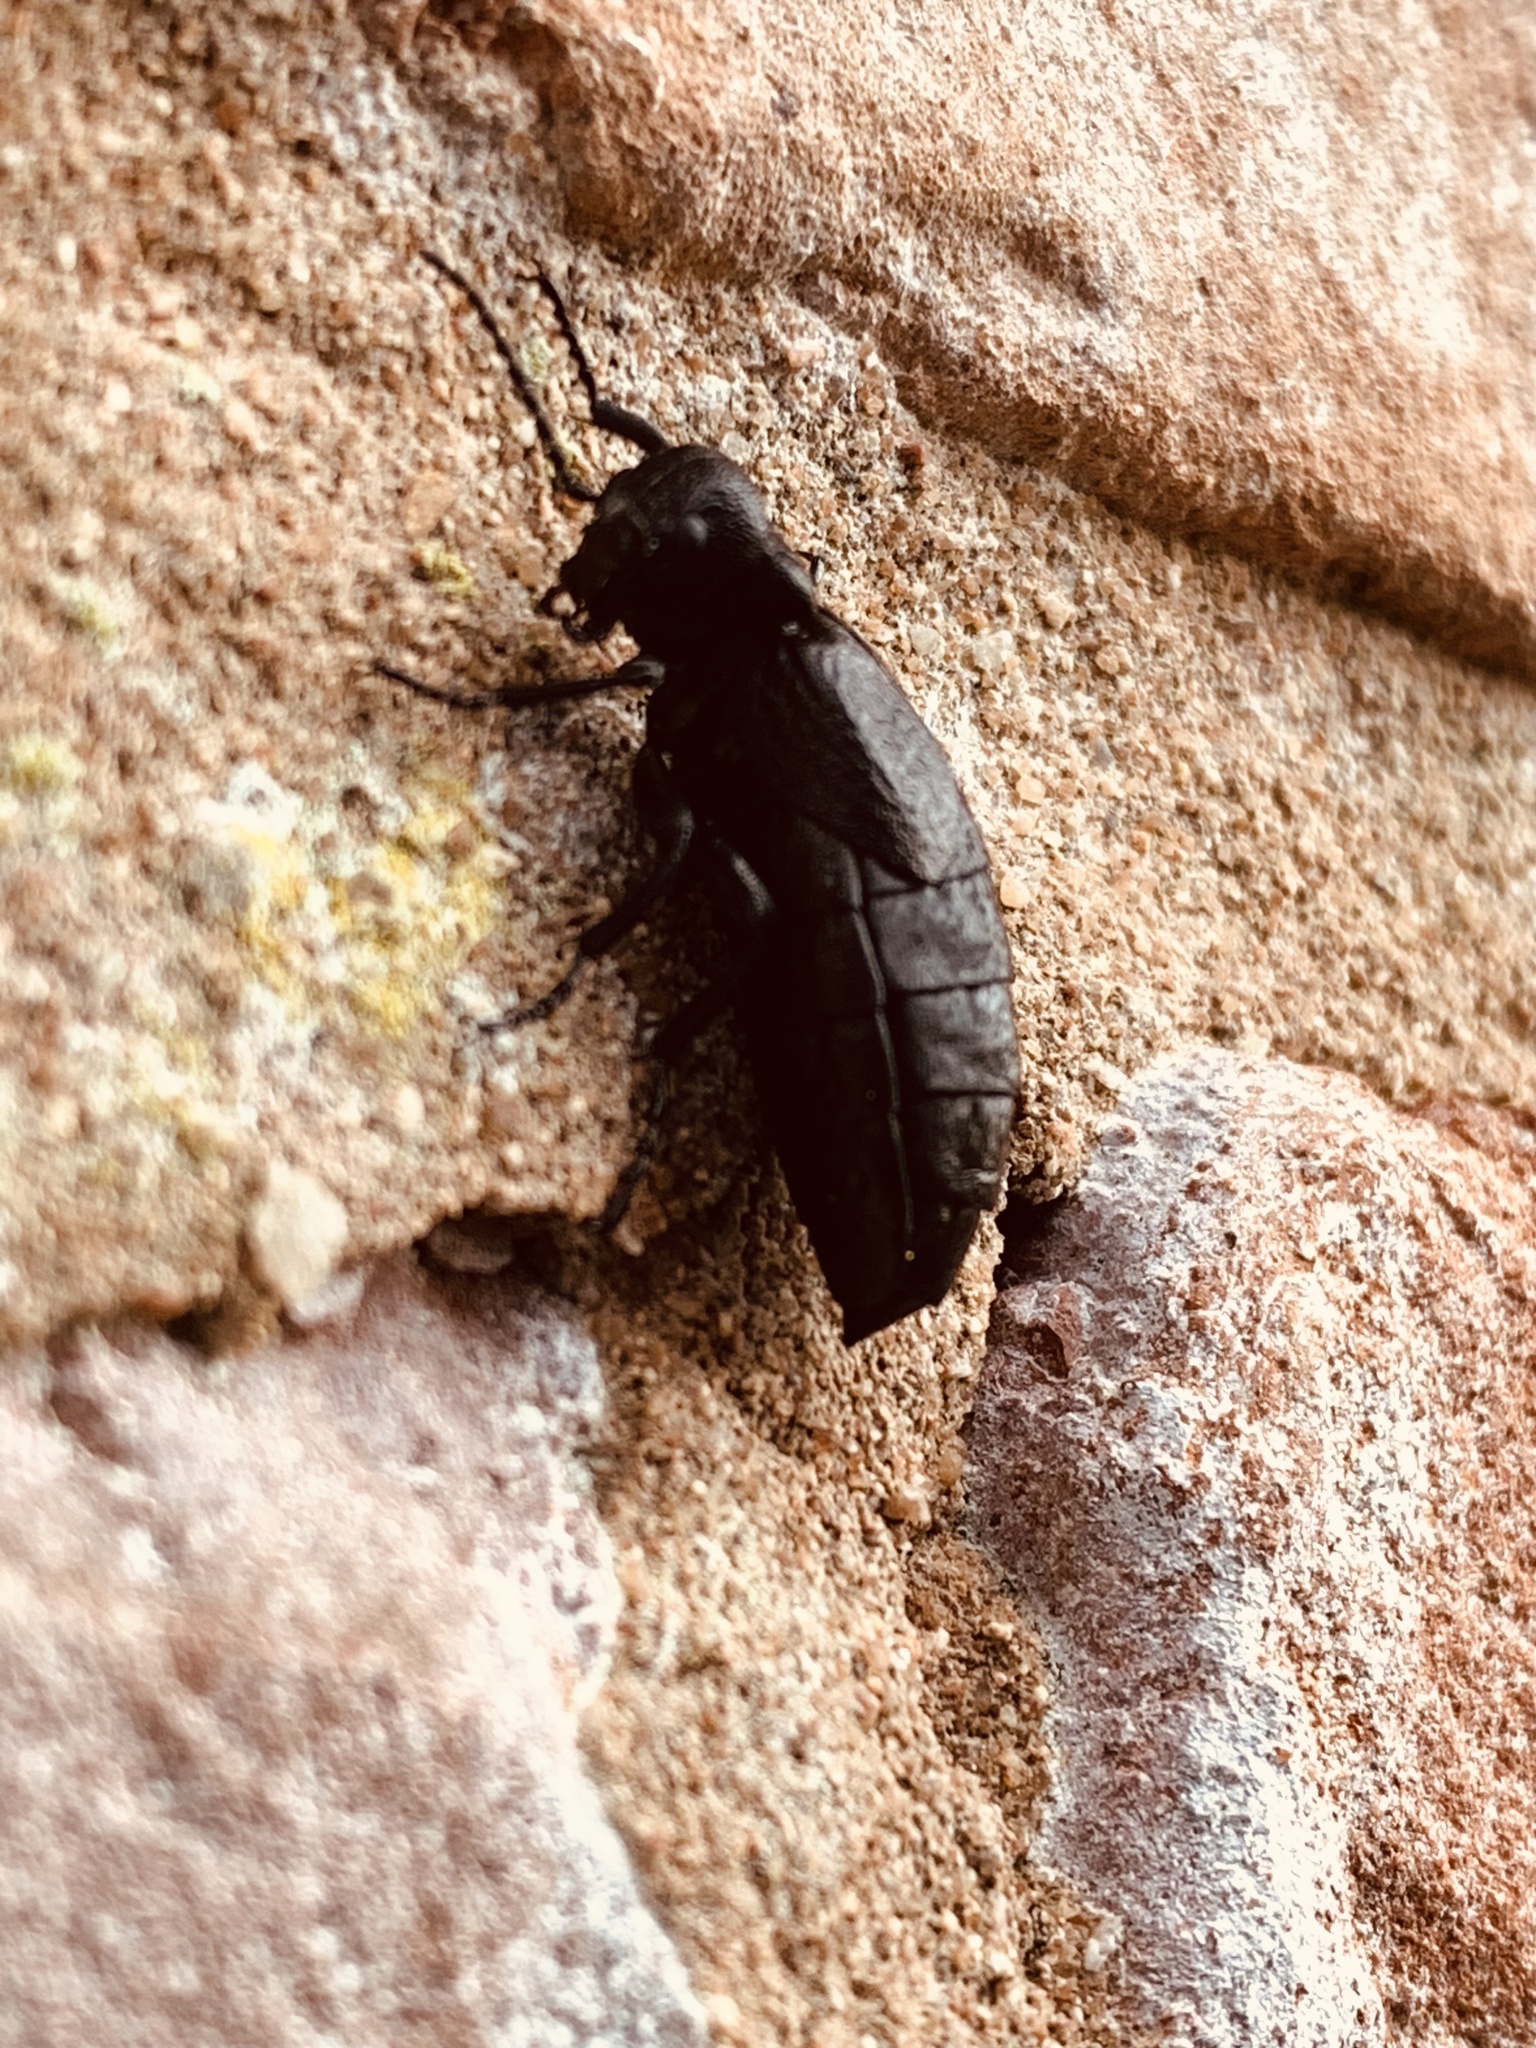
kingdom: Animalia
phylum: Arthropoda
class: Insecta
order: Coleoptera
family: Meloidae
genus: Meloe
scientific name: Meloe proscarabaeus
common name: Black oil-beetle
